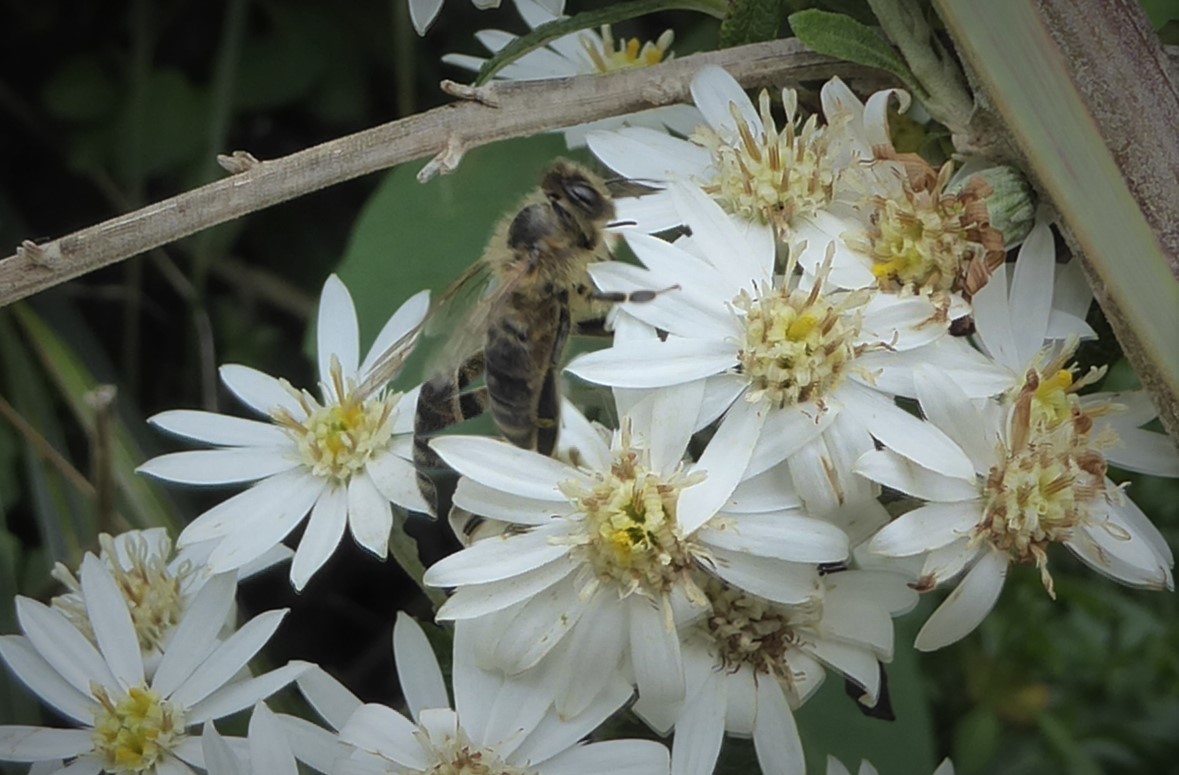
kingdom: Animalia
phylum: Arthropoda
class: Insecta
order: Hymenoptera
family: Apidae
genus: Apis
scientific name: Apis mellifera
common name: Honey bee
